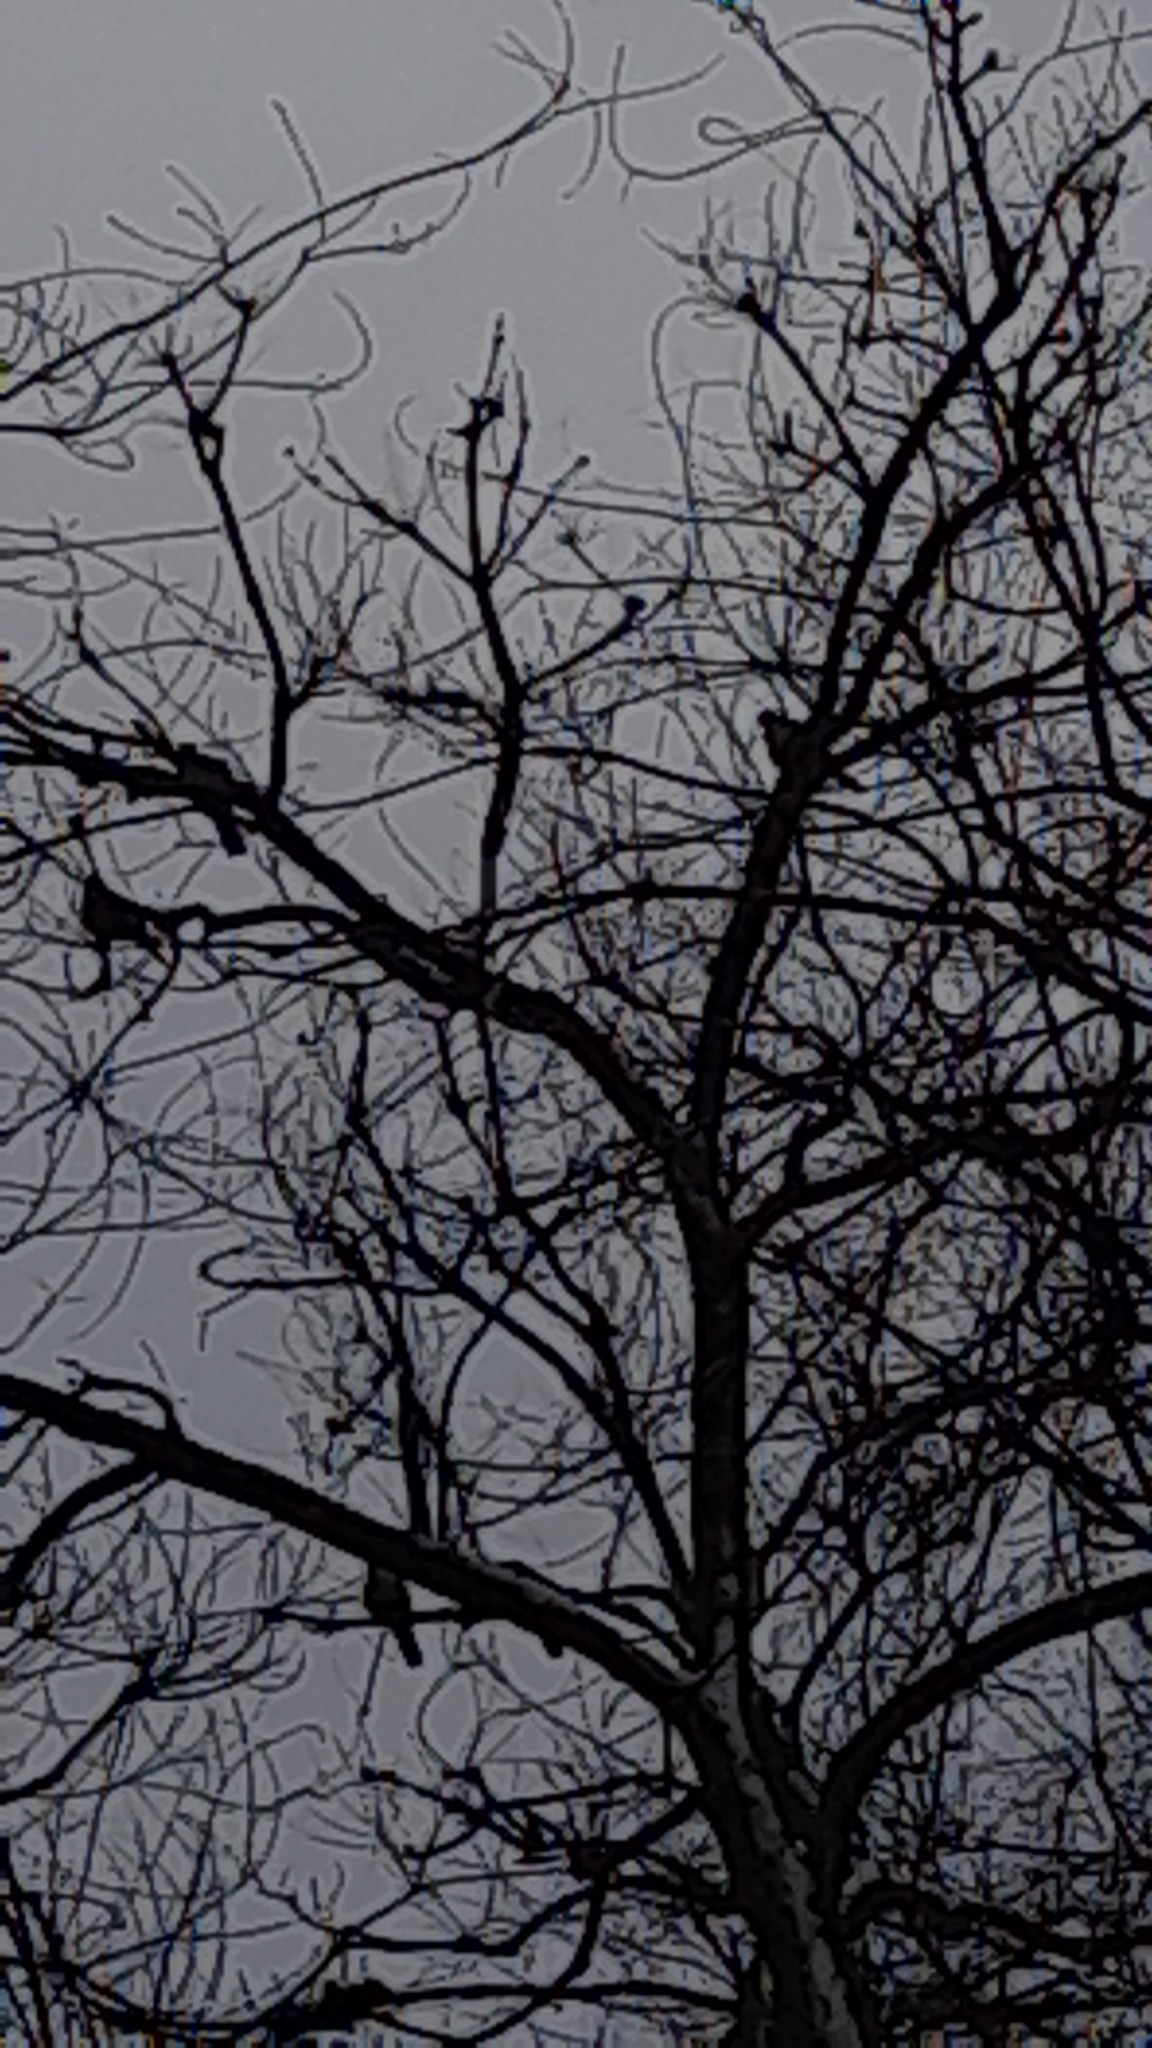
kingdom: Animalia
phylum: Chordata
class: Aves
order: Columbiformes
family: Columbidae
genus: Streptopelia
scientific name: Streptopelia decaocto
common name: Eurasian collared dove
